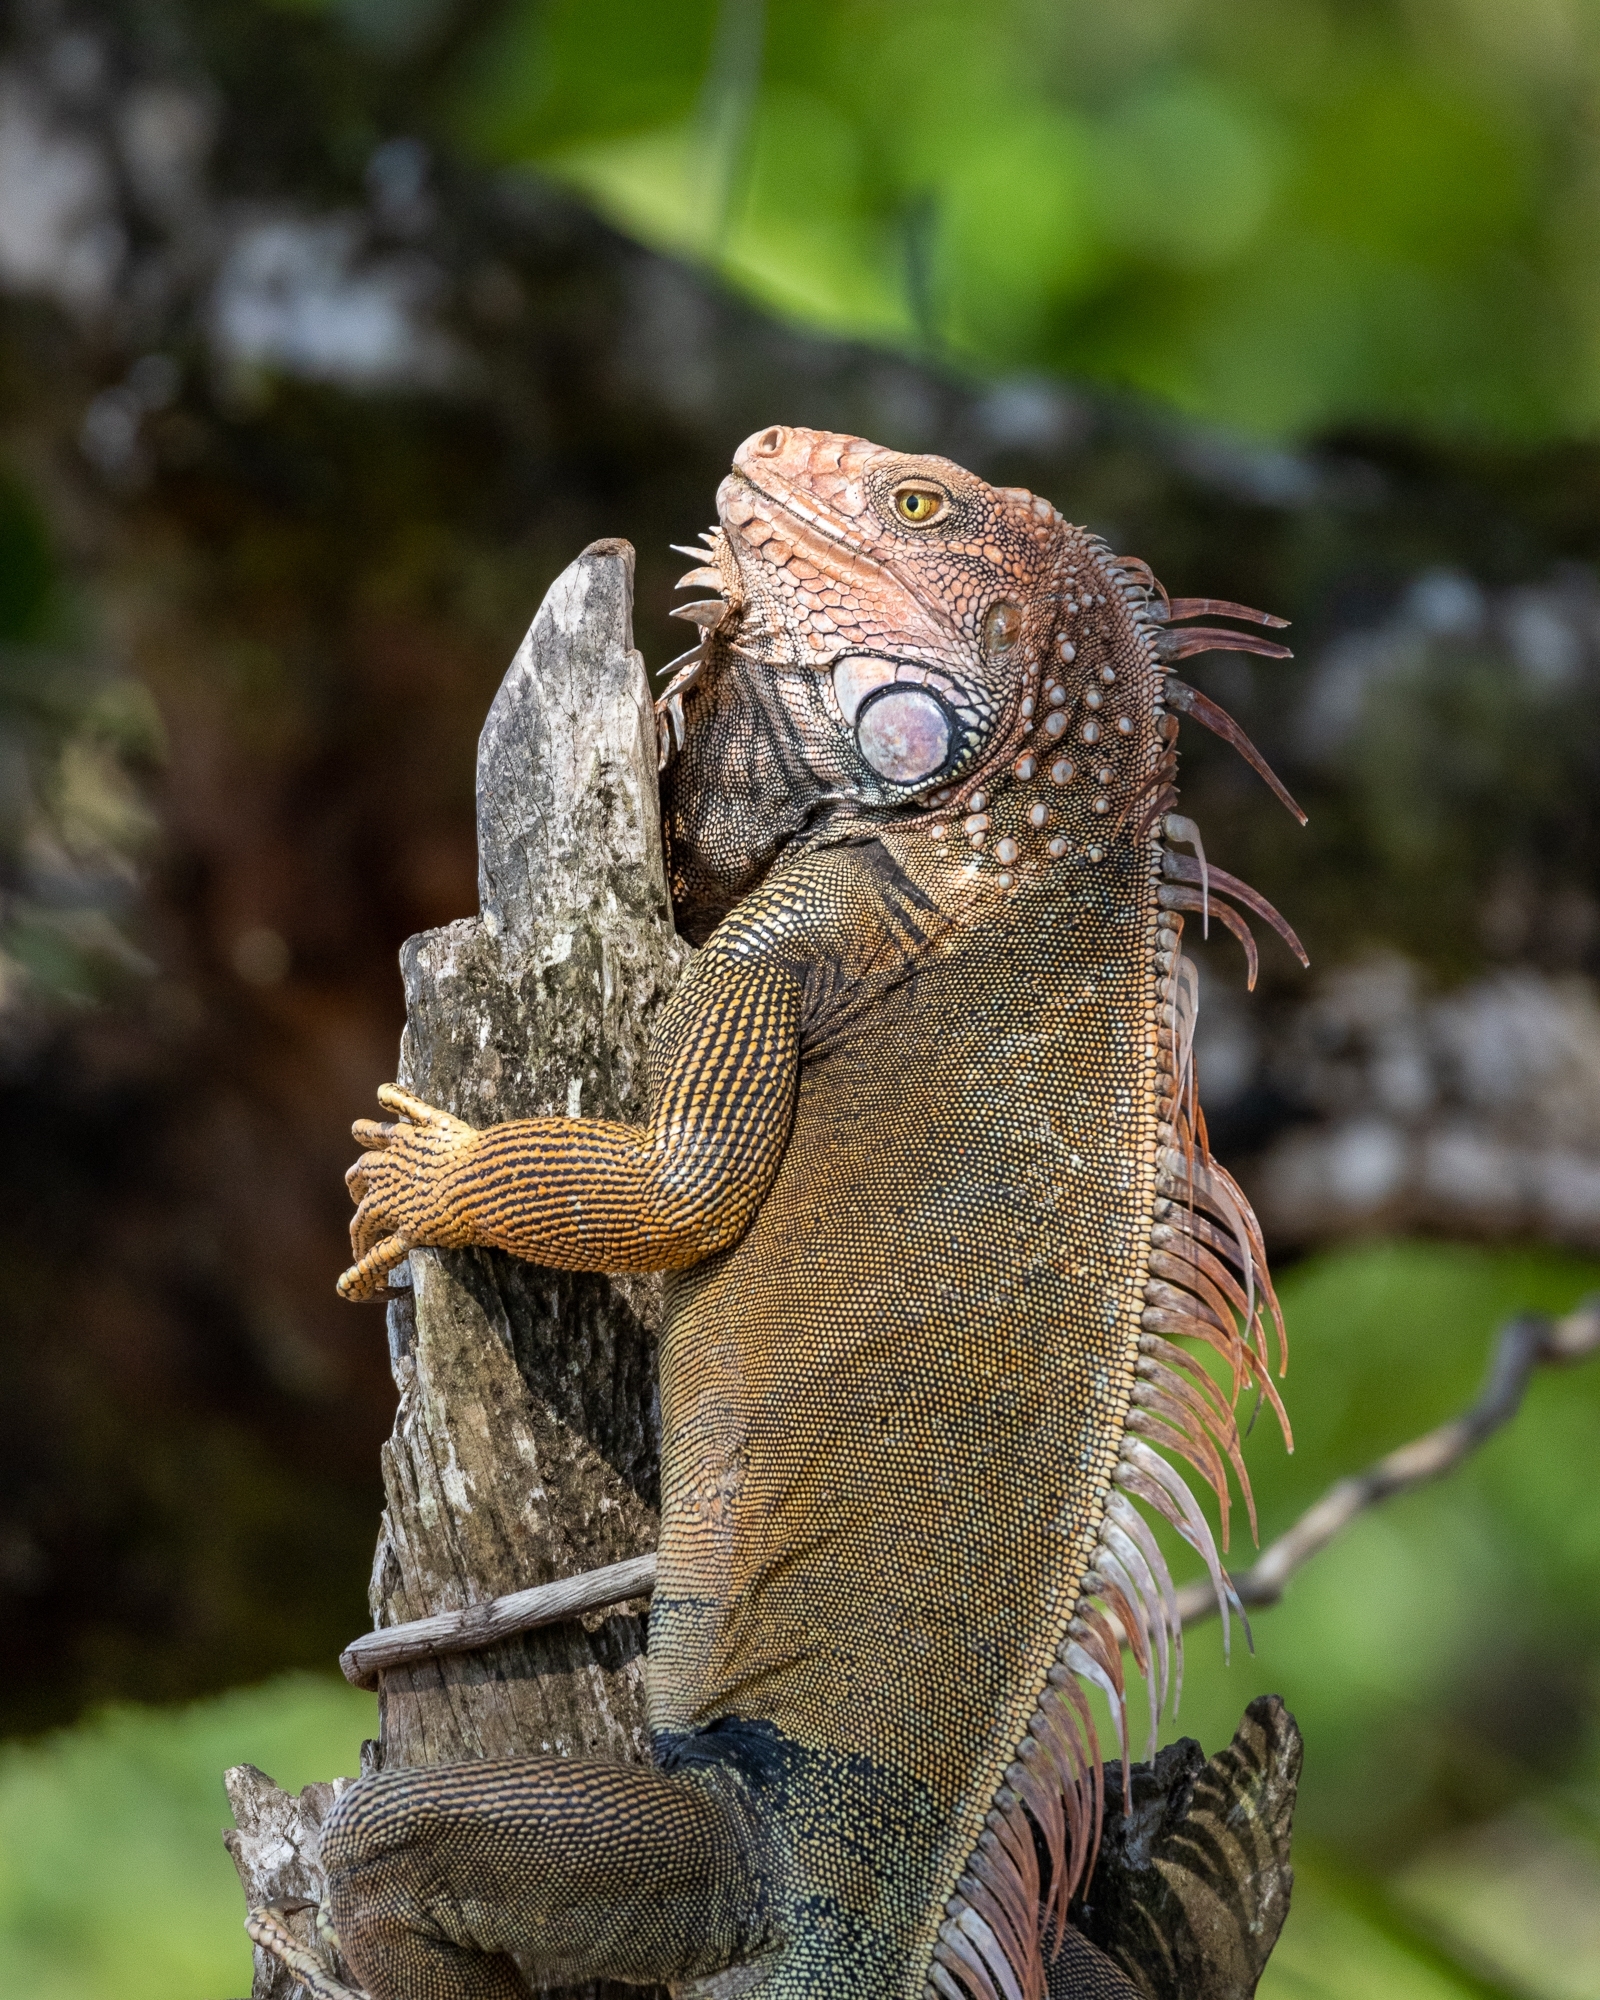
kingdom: Animalia
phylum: Chordata
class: Squamata
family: Iguanidae
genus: Iguana
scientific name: Iguana iguana
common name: Green iguana
